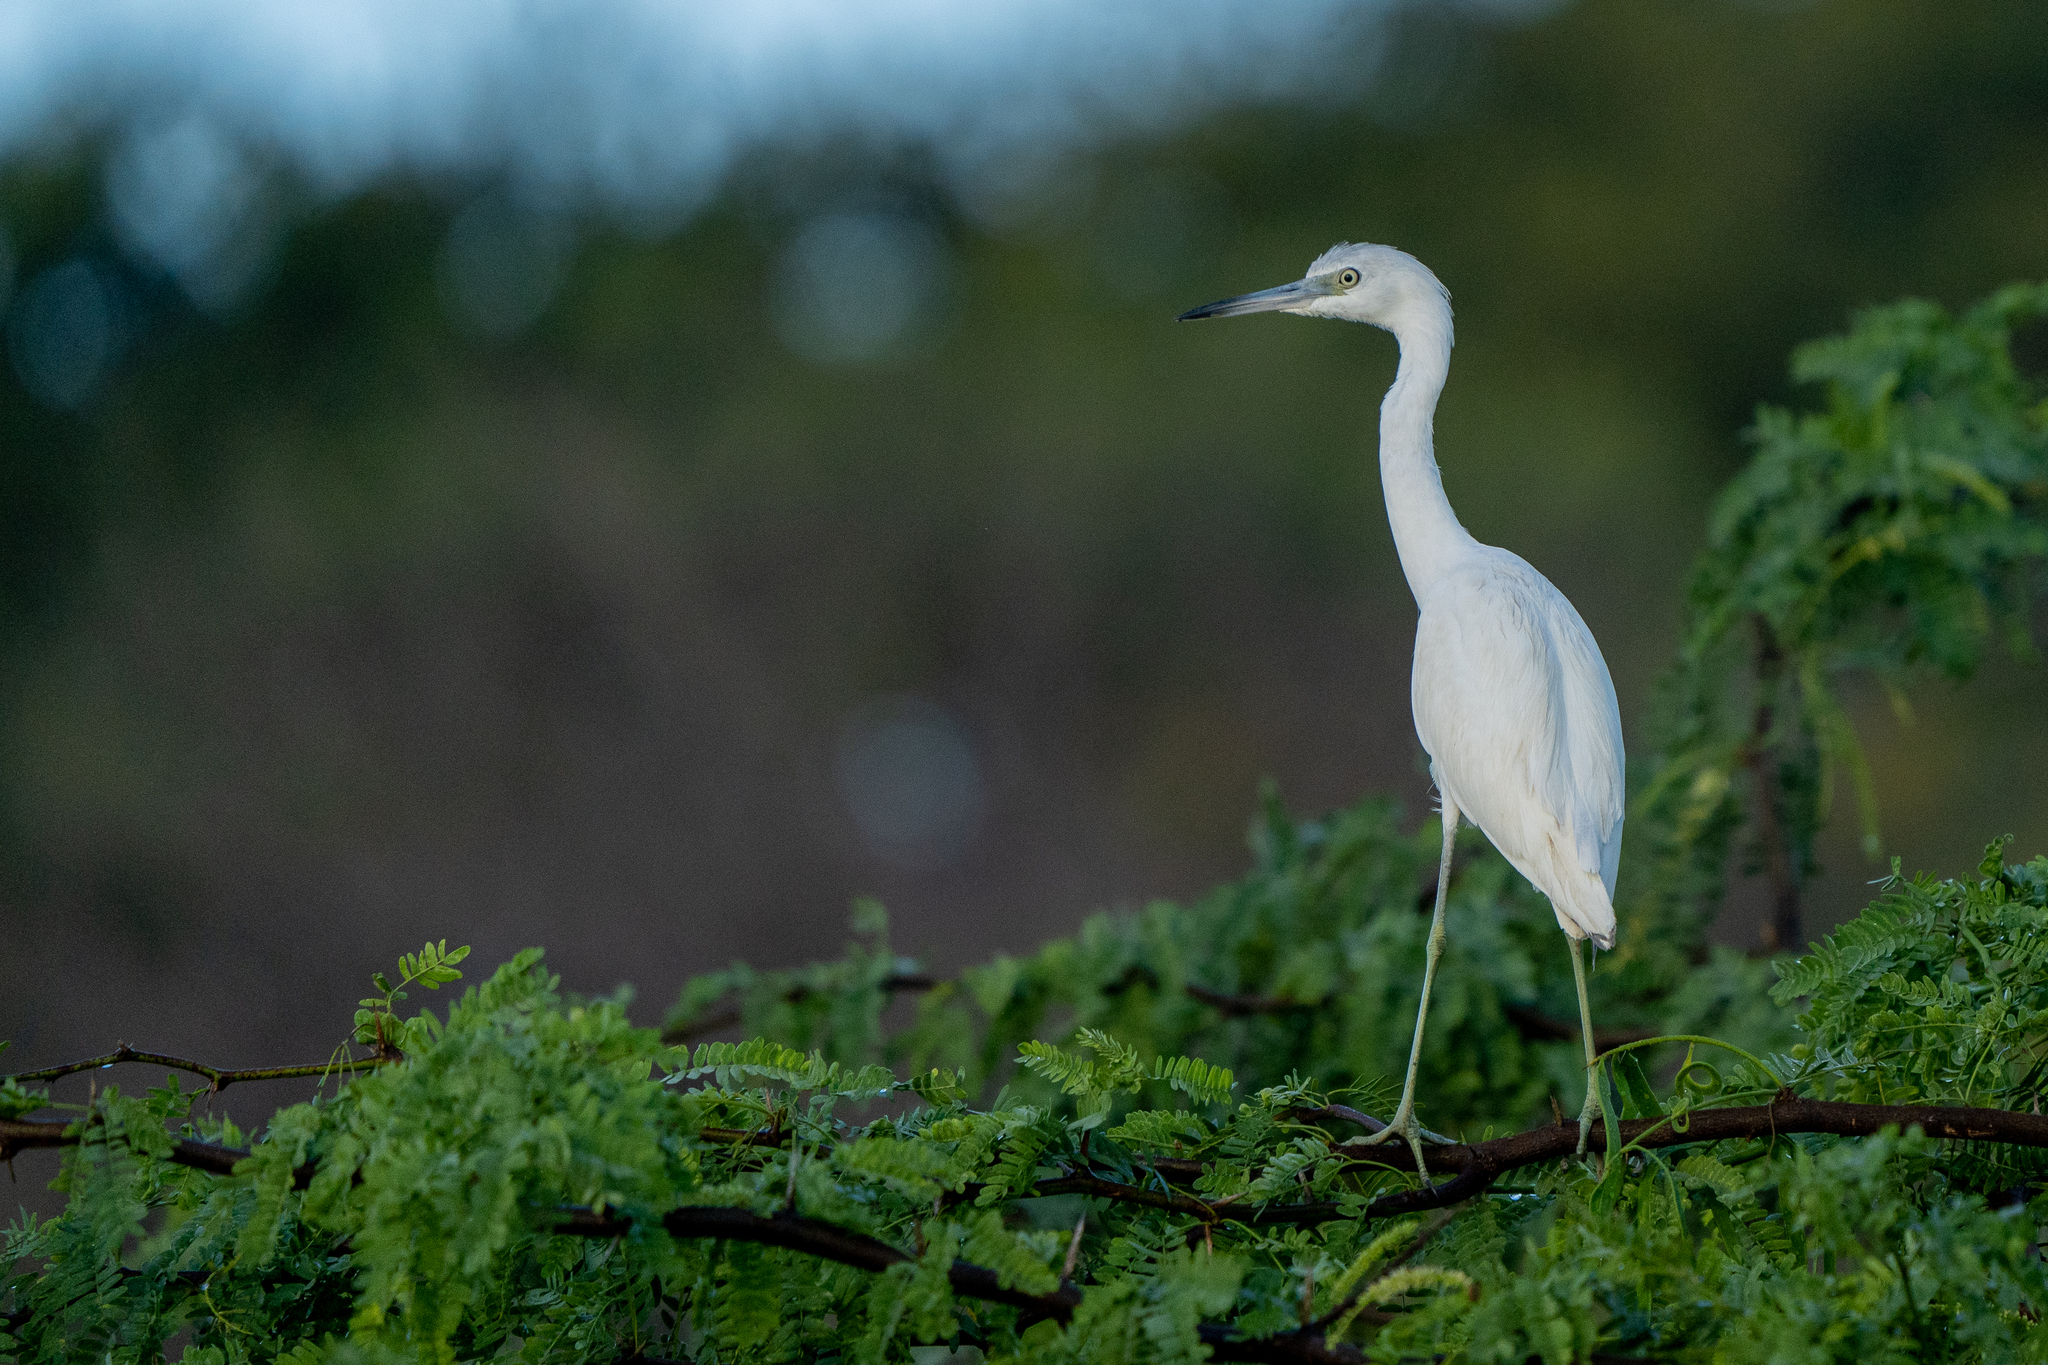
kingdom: Animalia
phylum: Chordata
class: Aves
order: Pelecaniformes
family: Ardeidae
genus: Egretta
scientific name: Egretta caerulea
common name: Little blue heron
